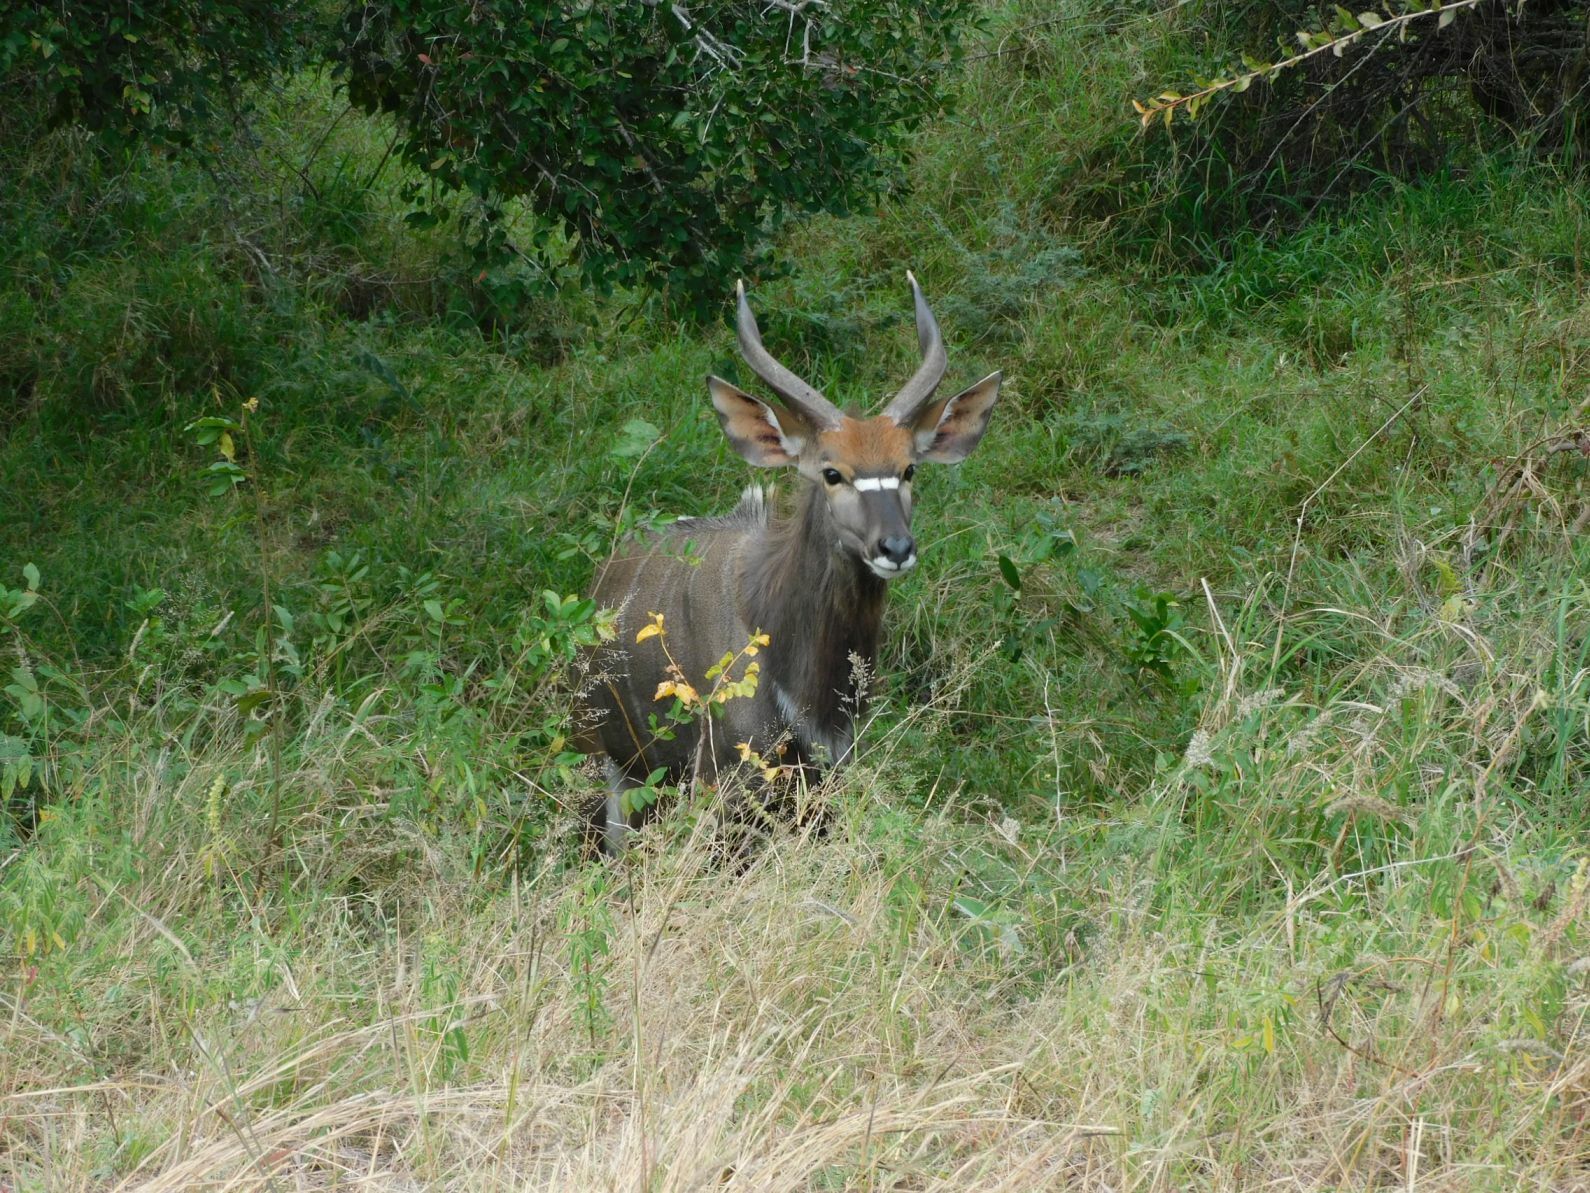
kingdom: Animalia
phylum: Chordata
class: Mammalia
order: Artiodactyla
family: Bovidae
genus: Tragelaphus
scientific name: Tragelaphus angasii
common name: Nyala
